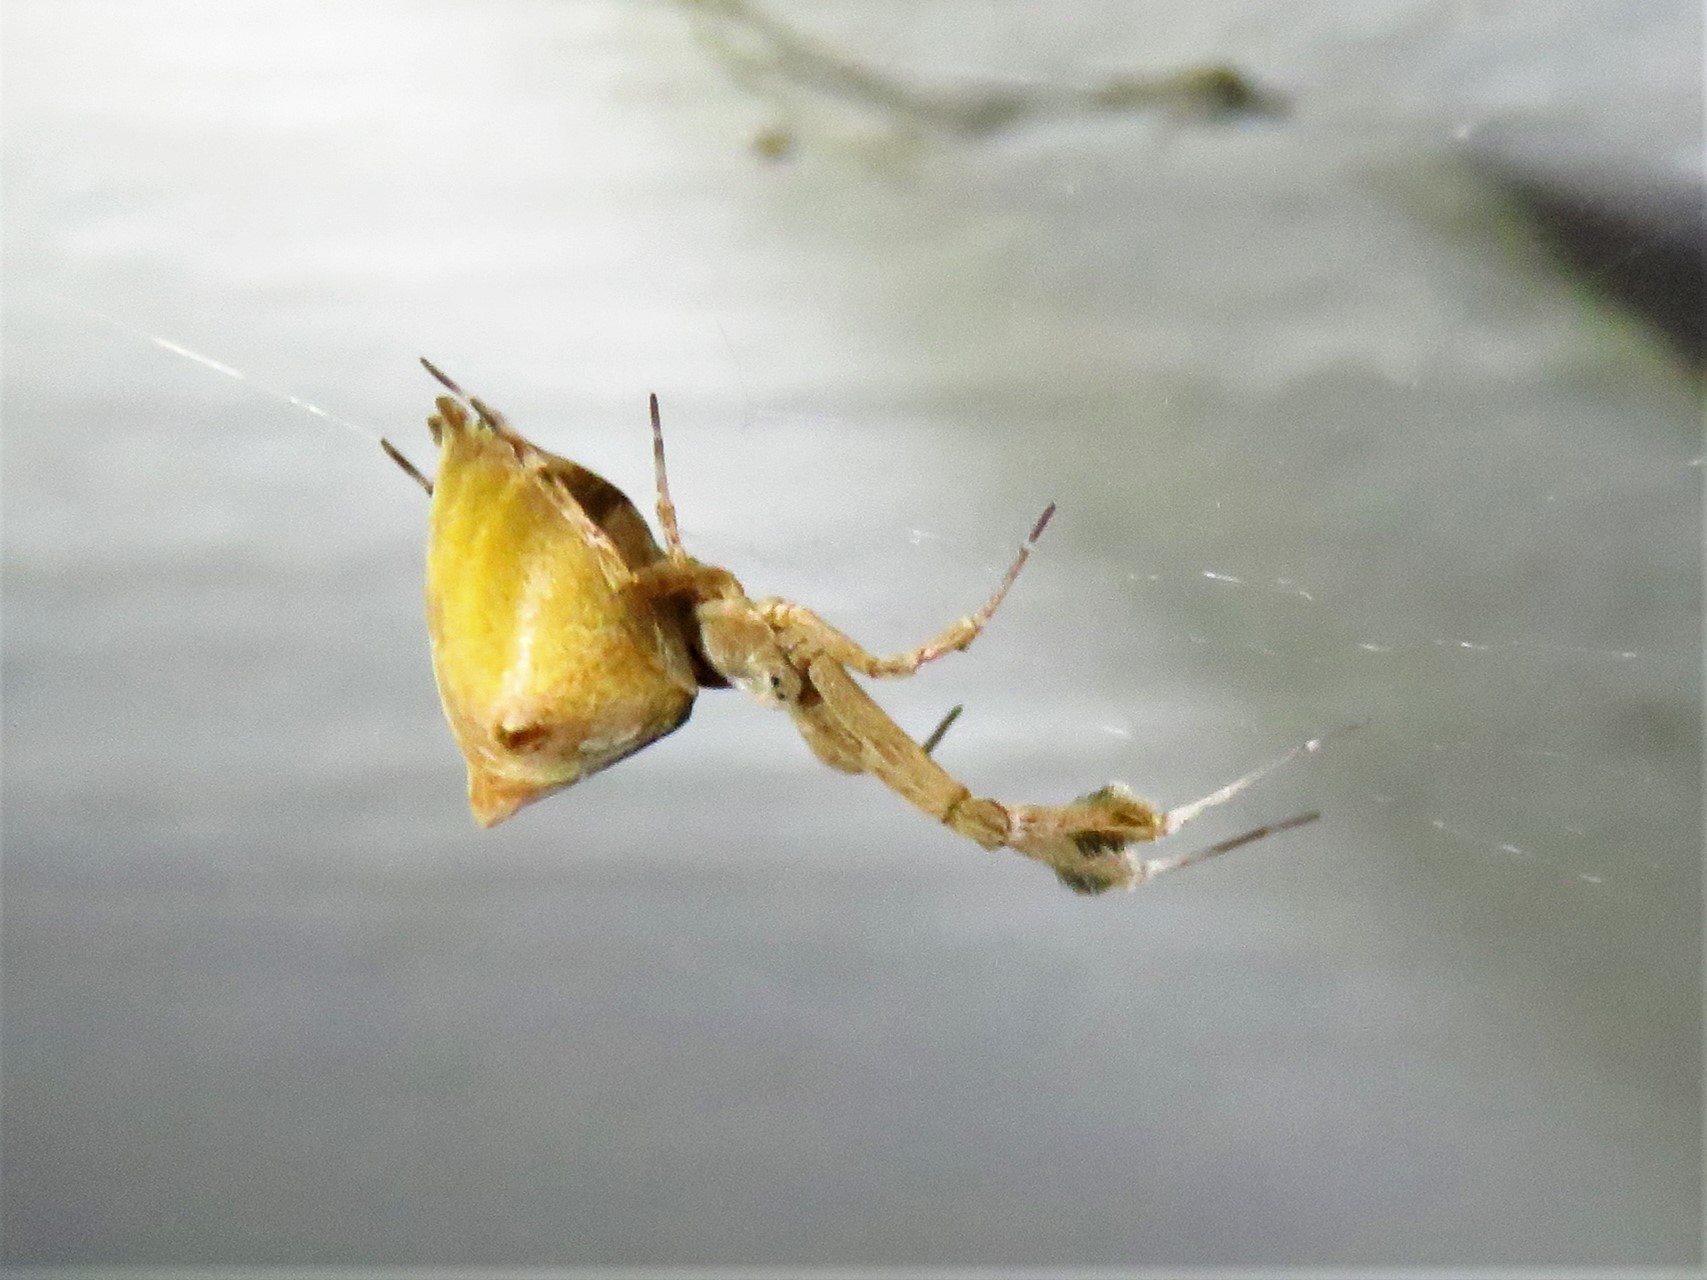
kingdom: Animalia
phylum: Arthropoda
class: Arachnida
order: Araneae
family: Uloboridae
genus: Uloborus
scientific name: Uloborus glomosus
